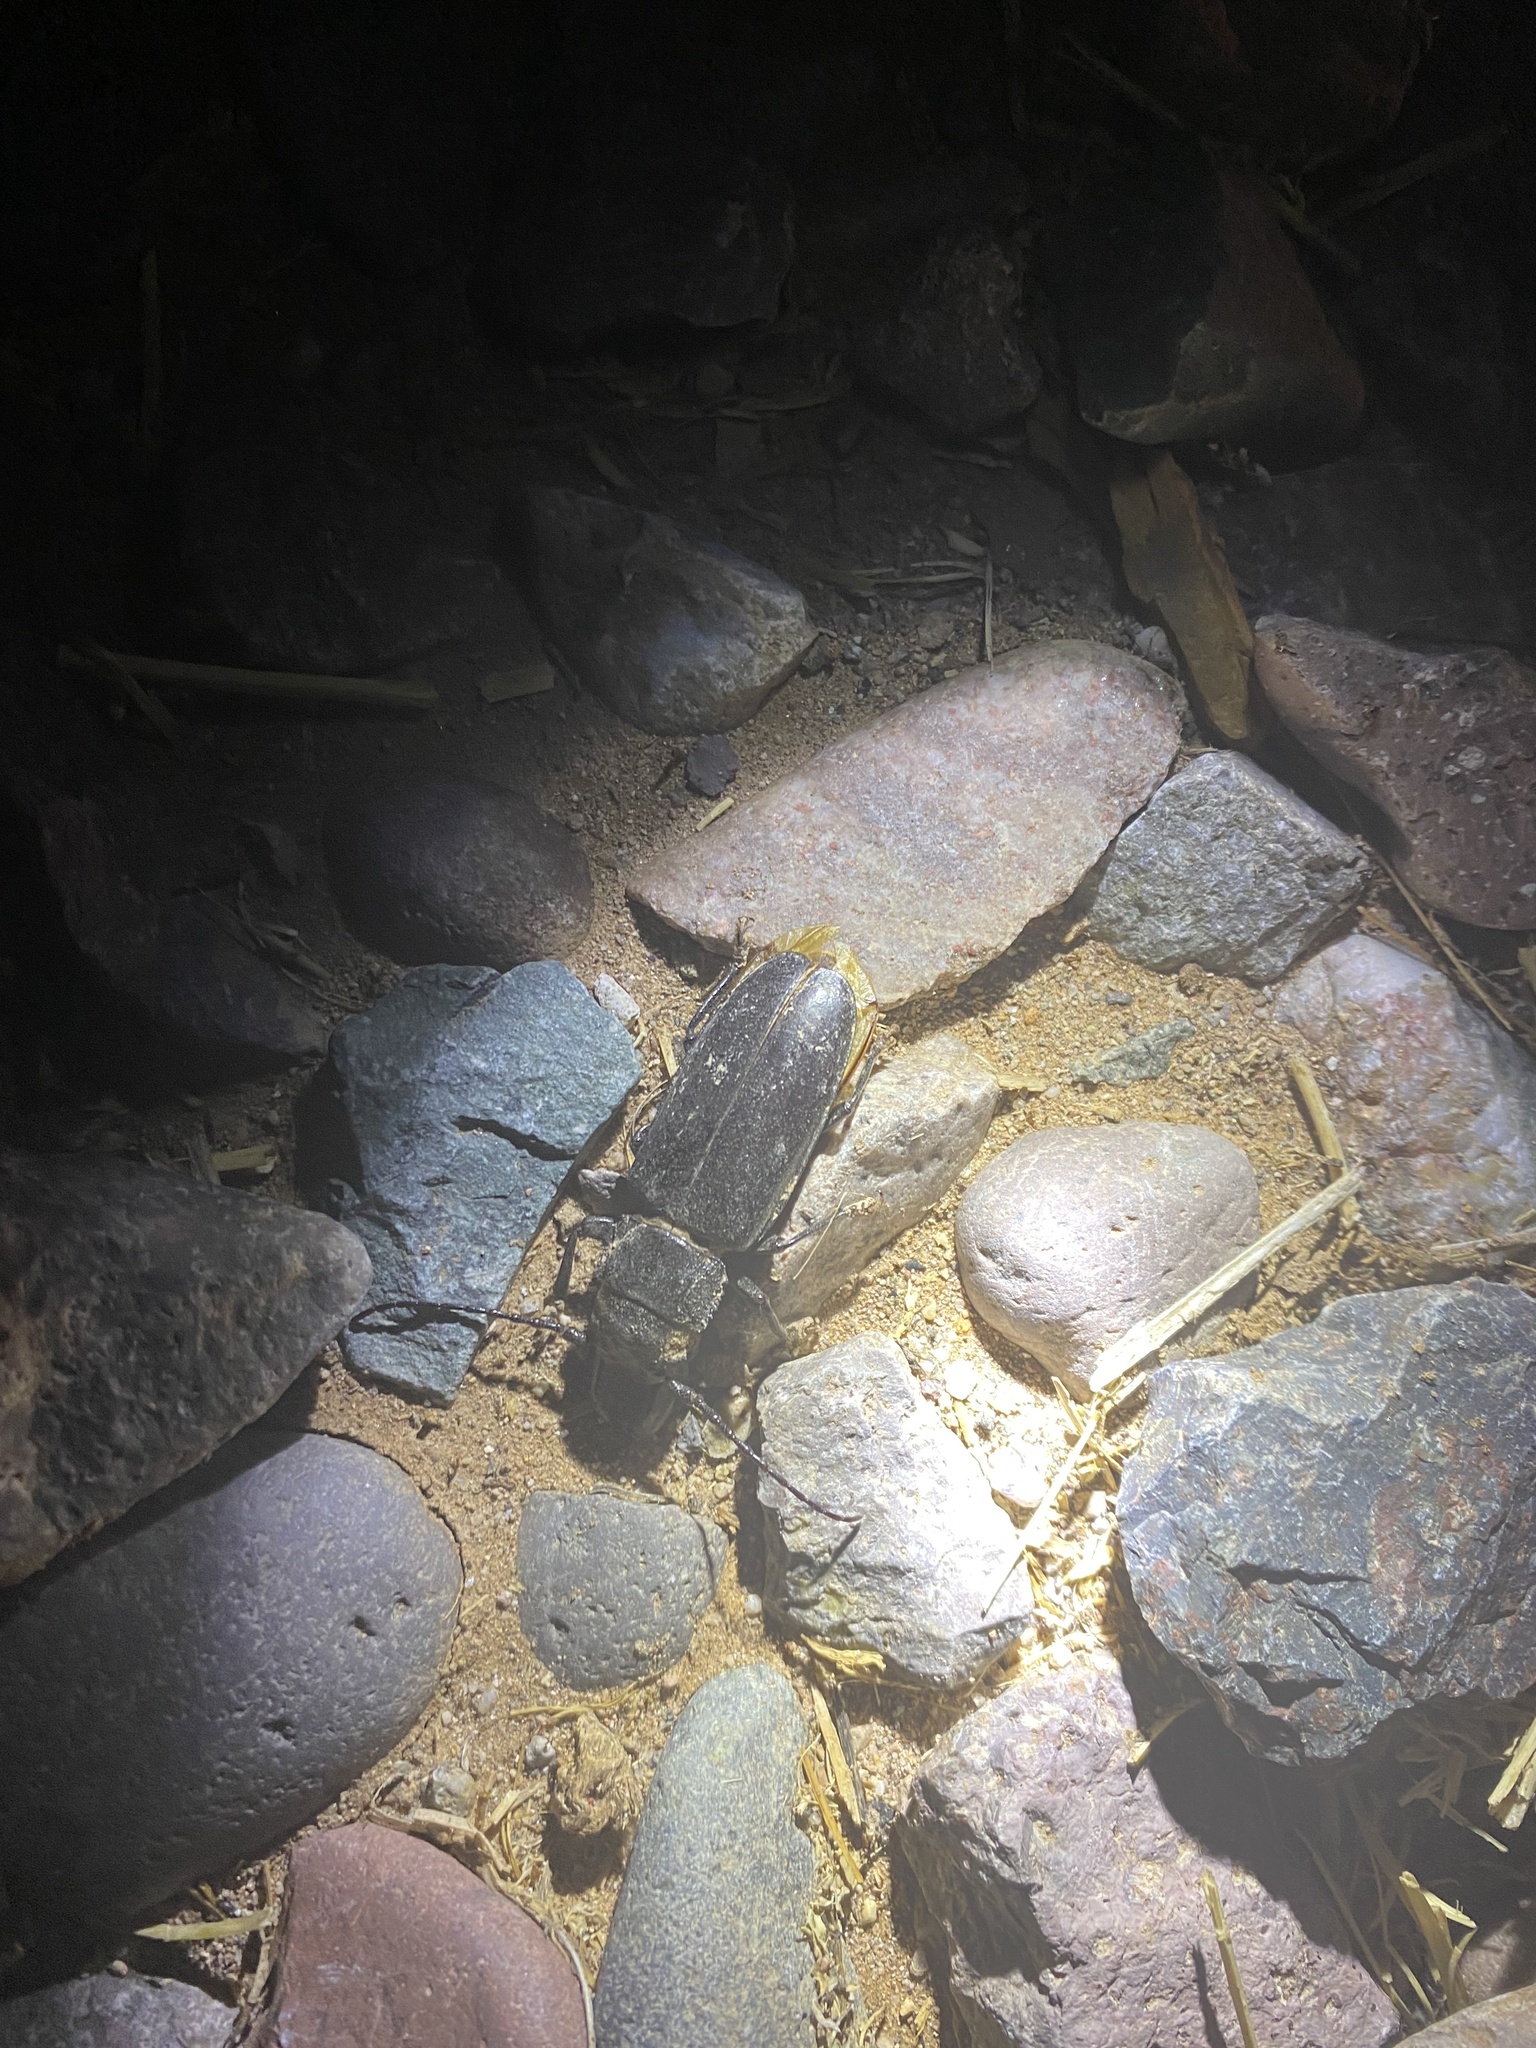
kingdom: Animalia
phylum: Arthropoda
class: Insecta
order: Coleoptera
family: Cerambycidae
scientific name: Cerambycidae
